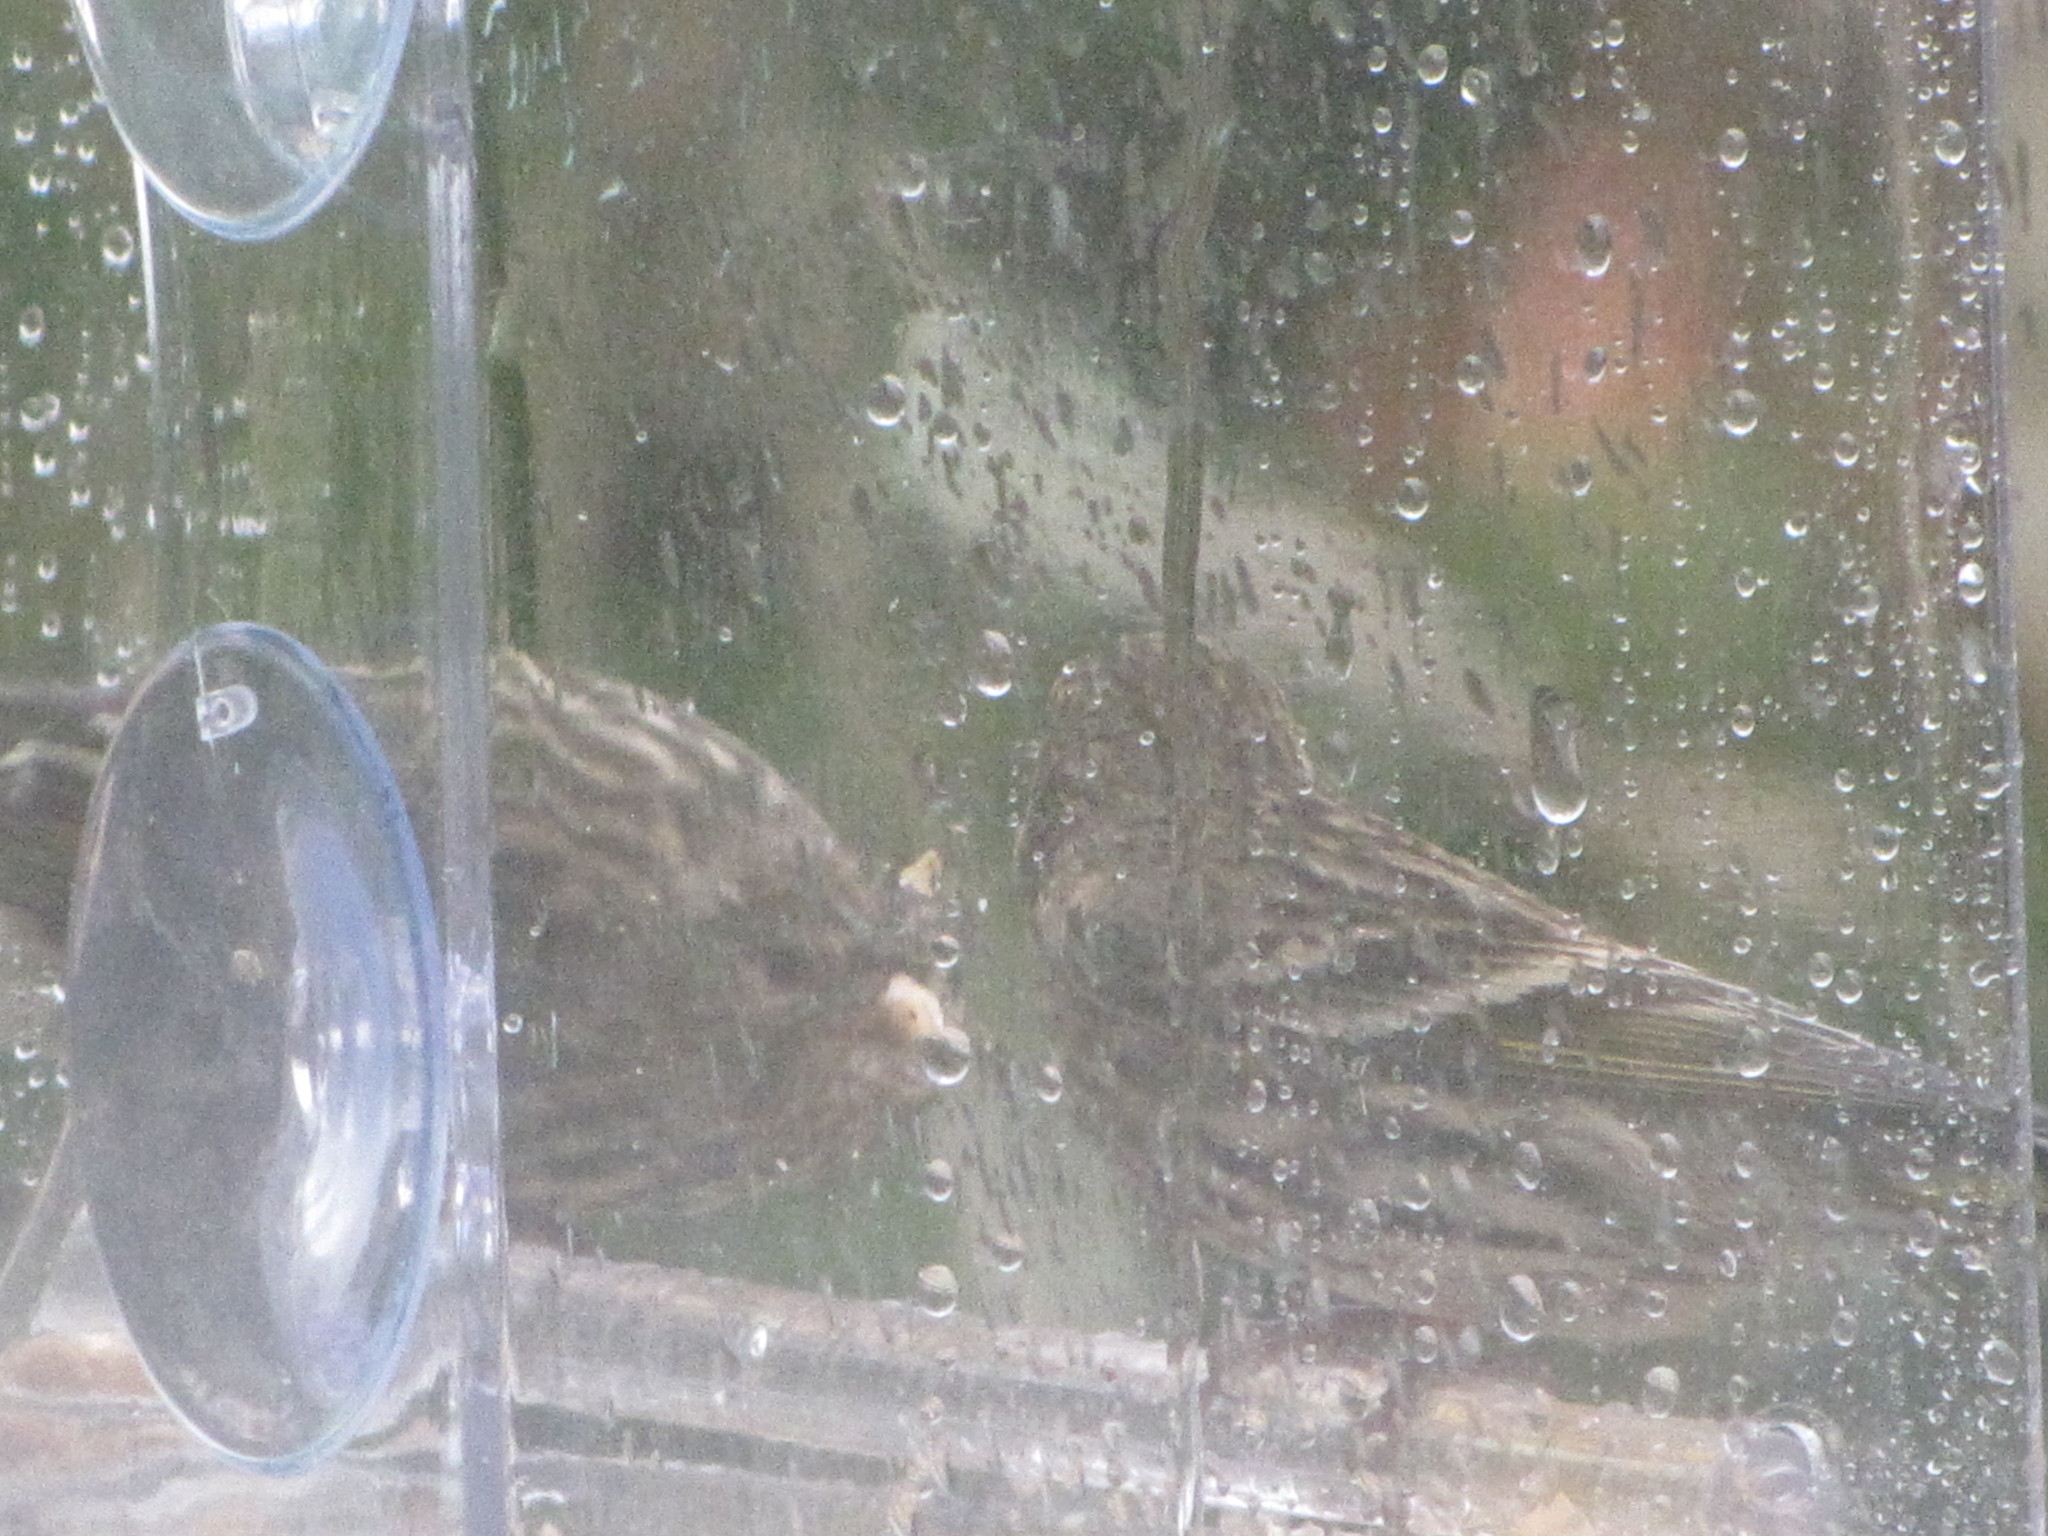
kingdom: Animalia
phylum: Chordata
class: Aves
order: Passeriformes
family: Fringillidae
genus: Spinus
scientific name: Spinus pinus
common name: Pine siskin
